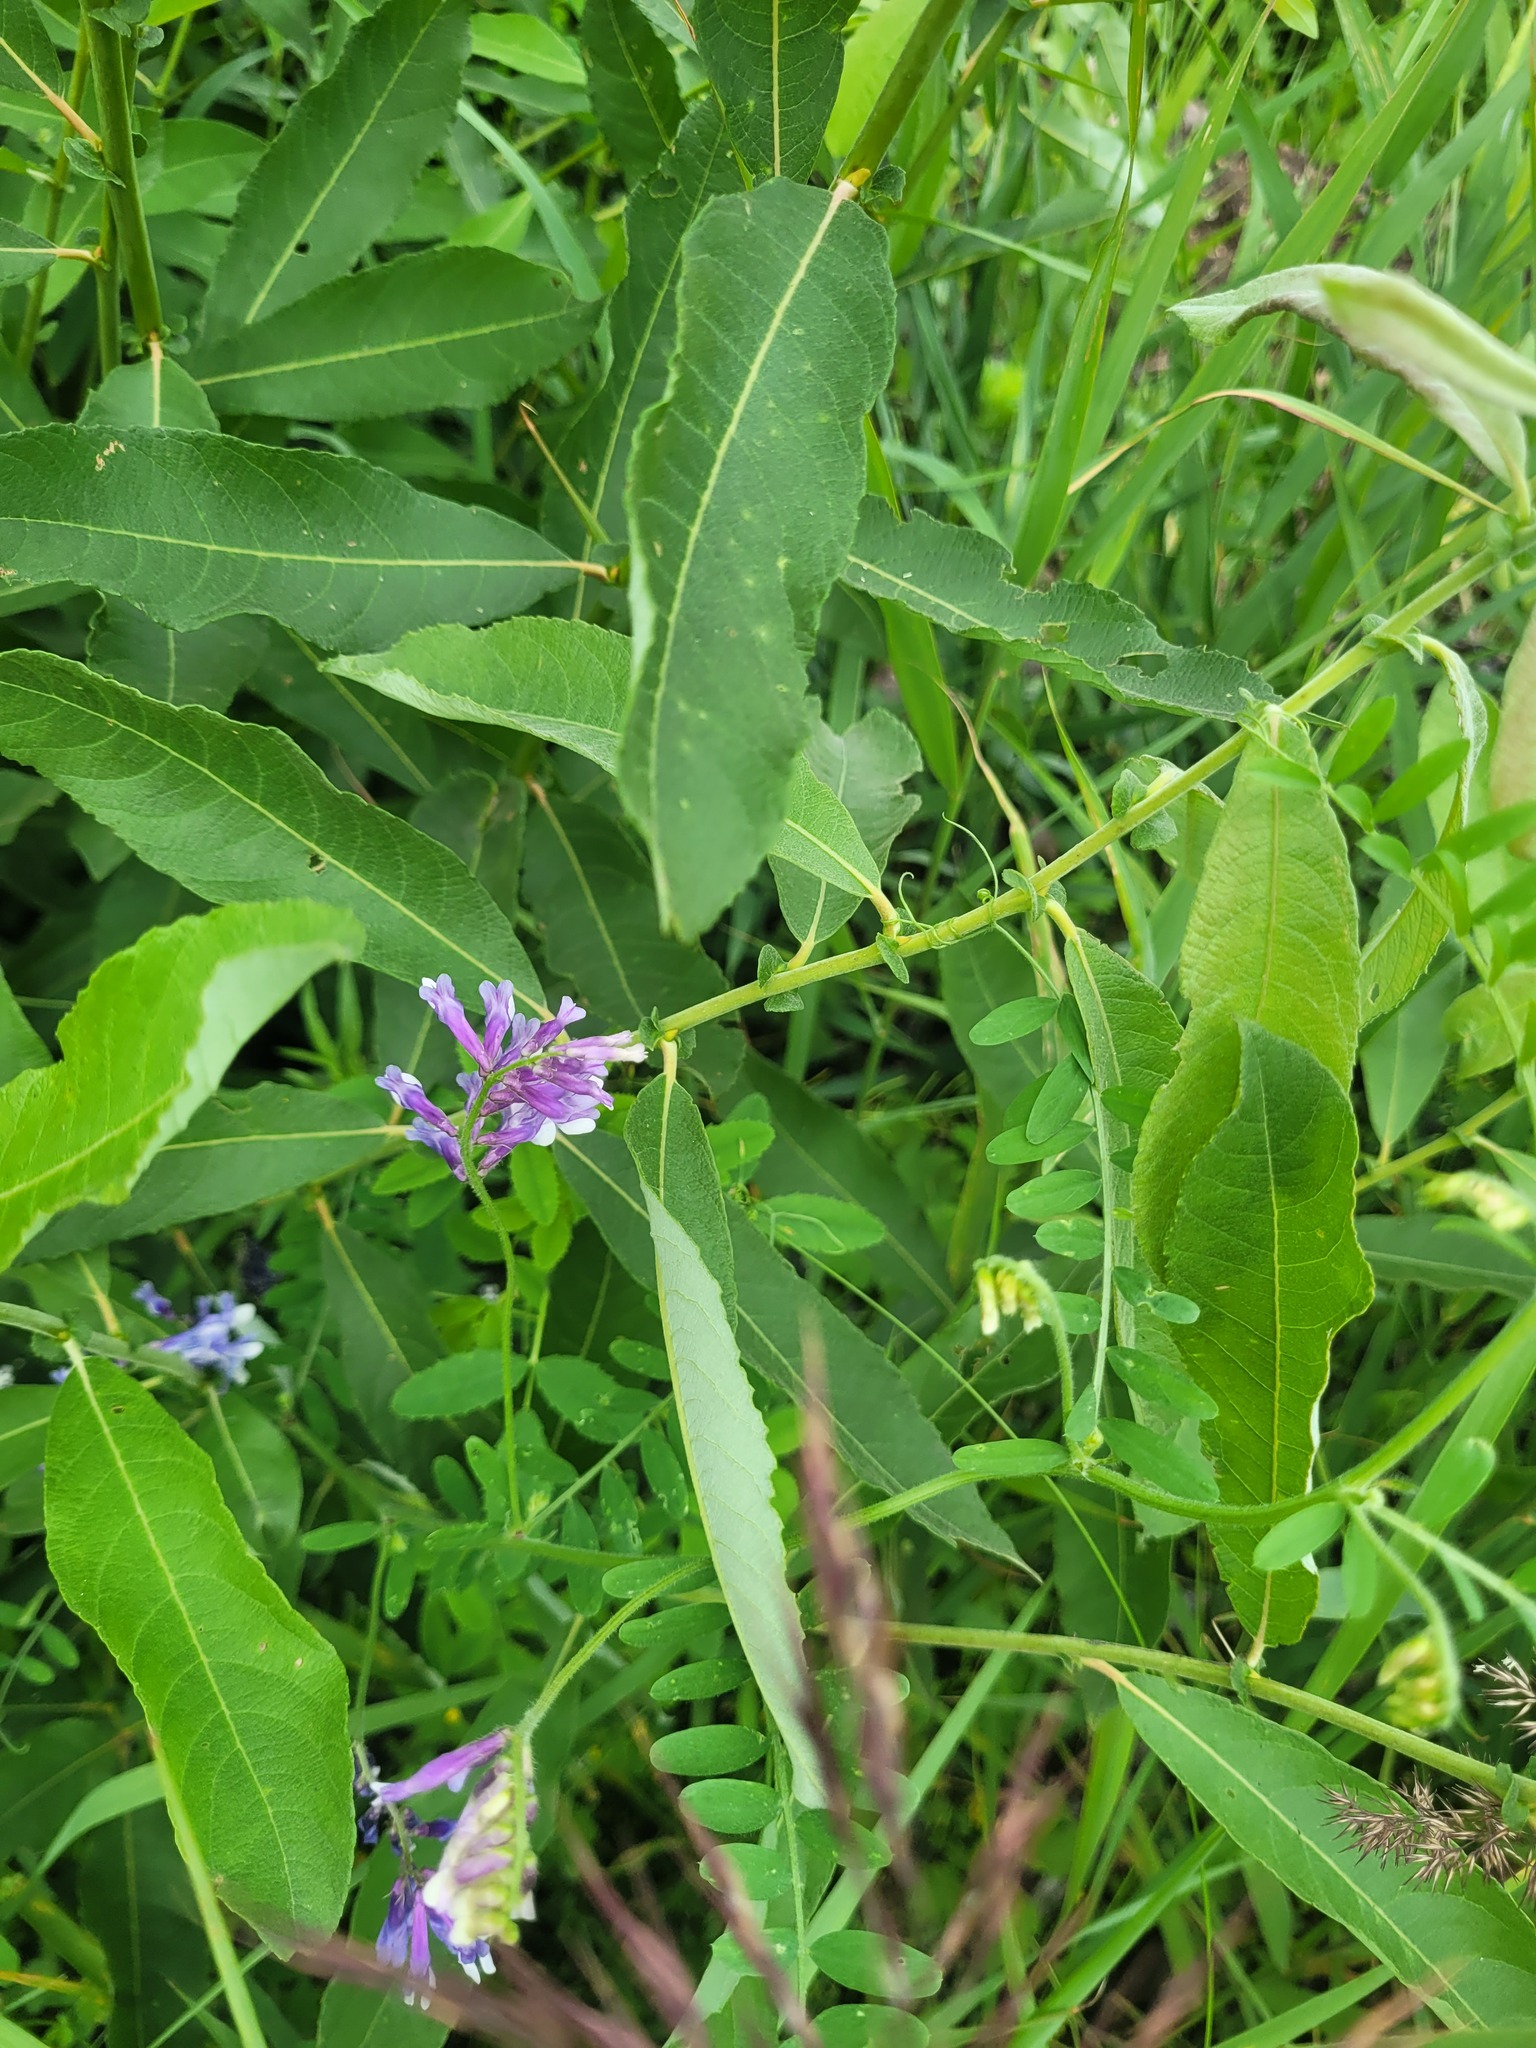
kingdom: Plantae
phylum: Tracheophyta
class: Magnoliopsida
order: Fabales
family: Fabaceae
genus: Vicia
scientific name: Vicia villosa
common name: Fodder vetch
